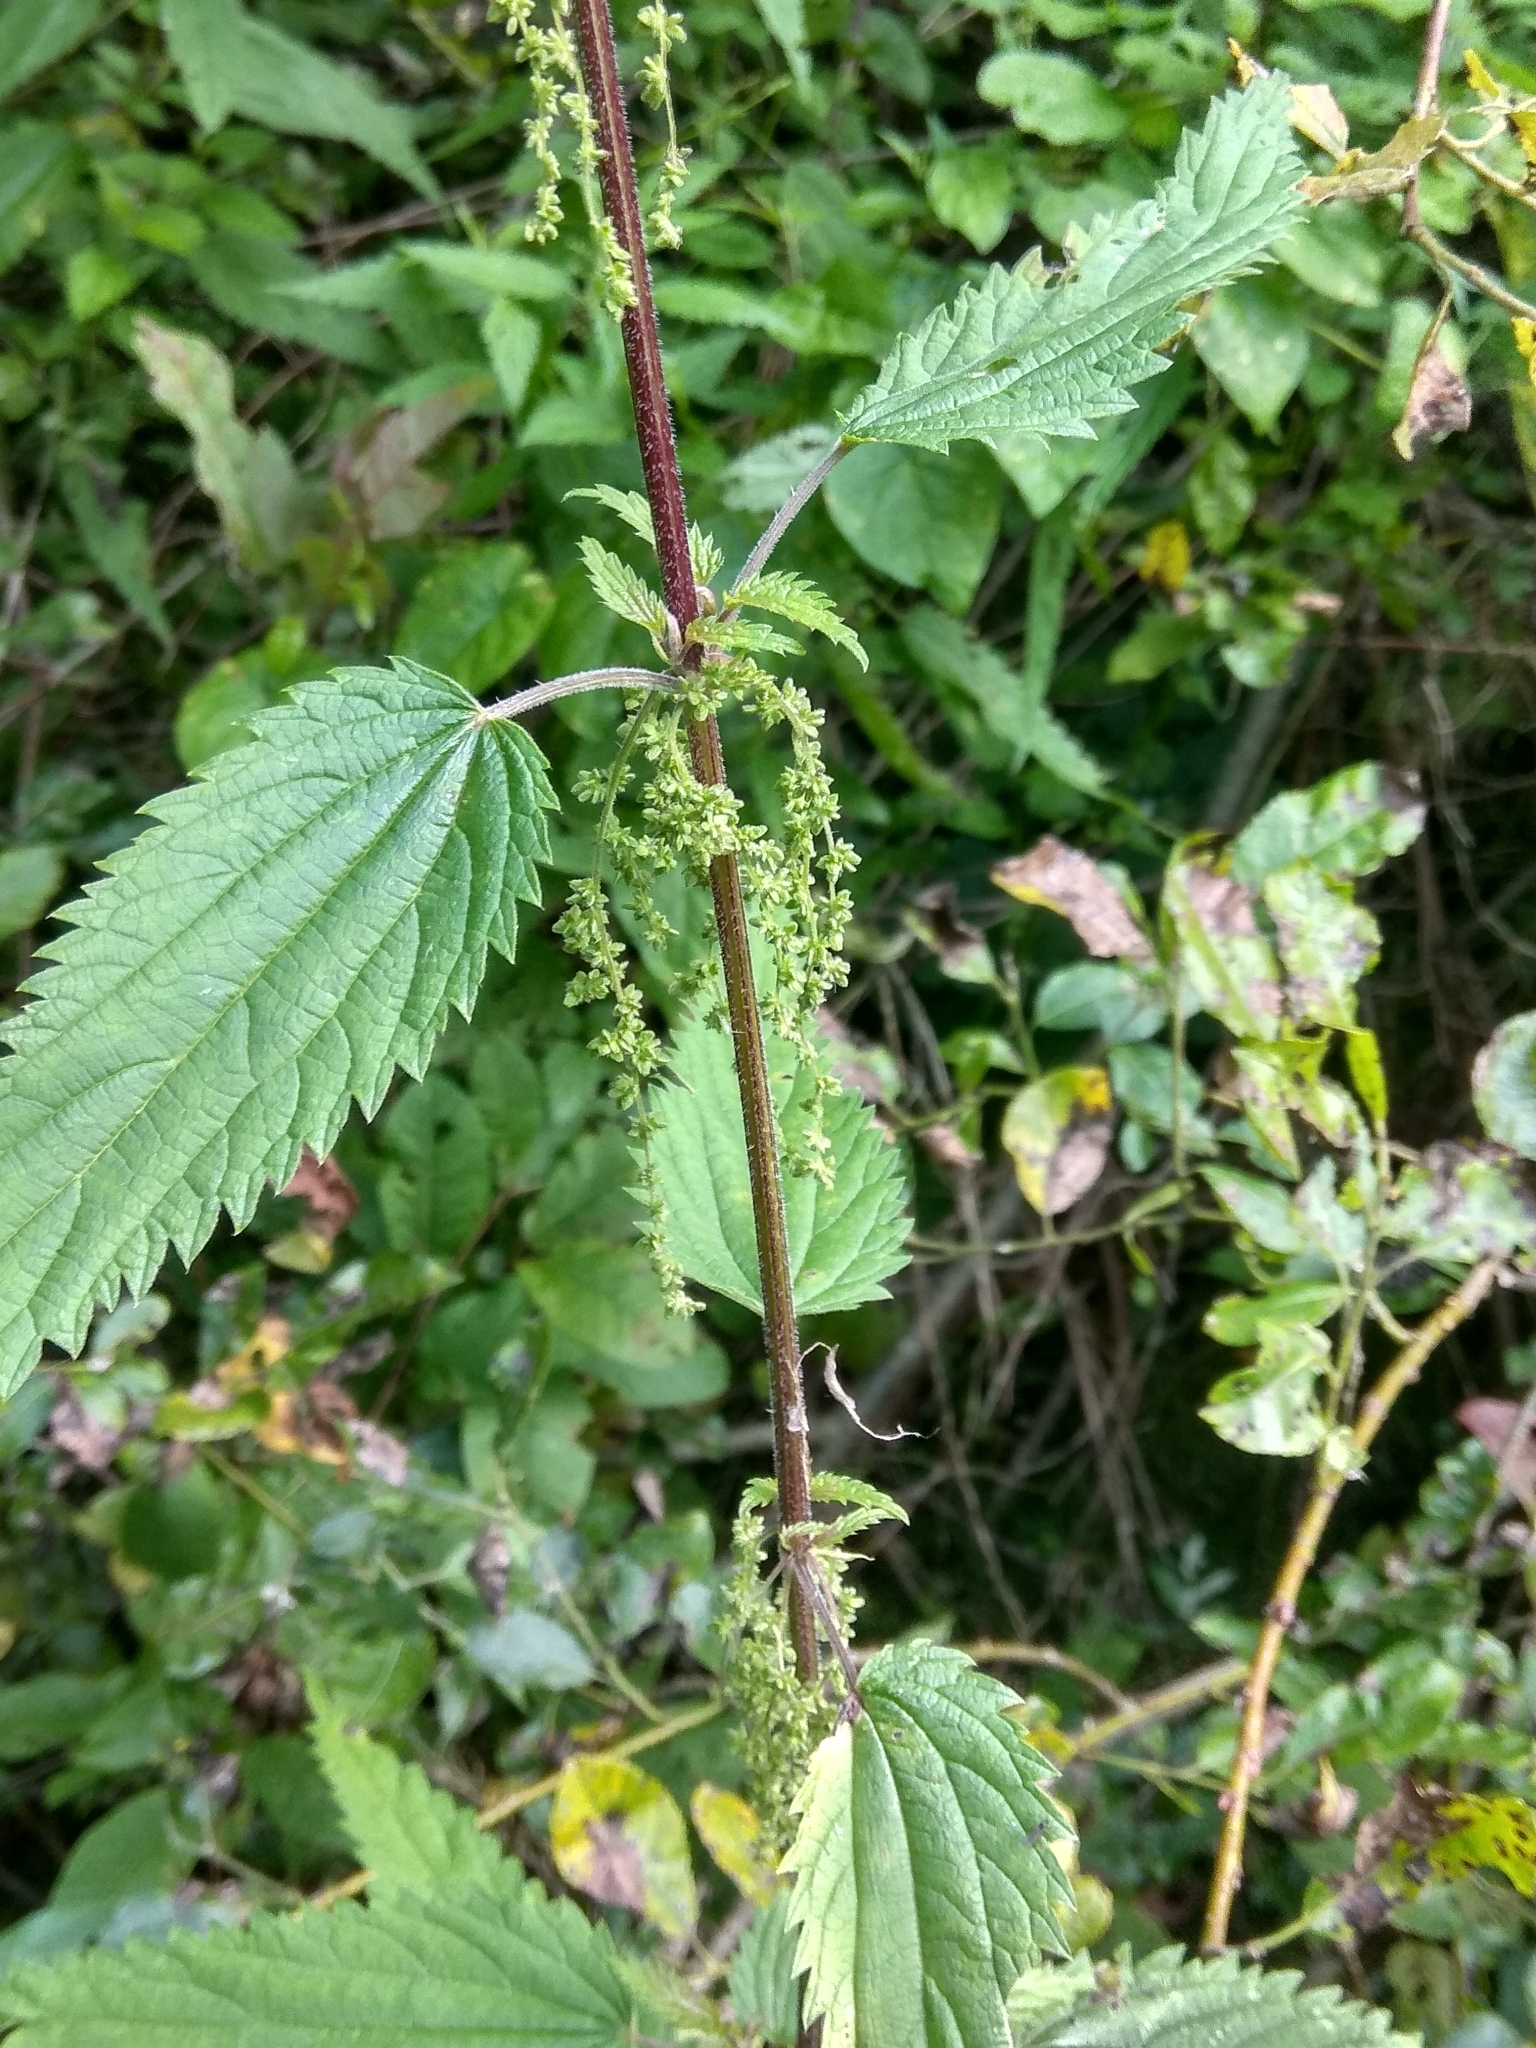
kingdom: Plantae
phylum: Tracheophyta
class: Magnoliopsida
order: Rosales
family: Urticaceae
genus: Urtica
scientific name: Urtica dioica
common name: Common nettle
